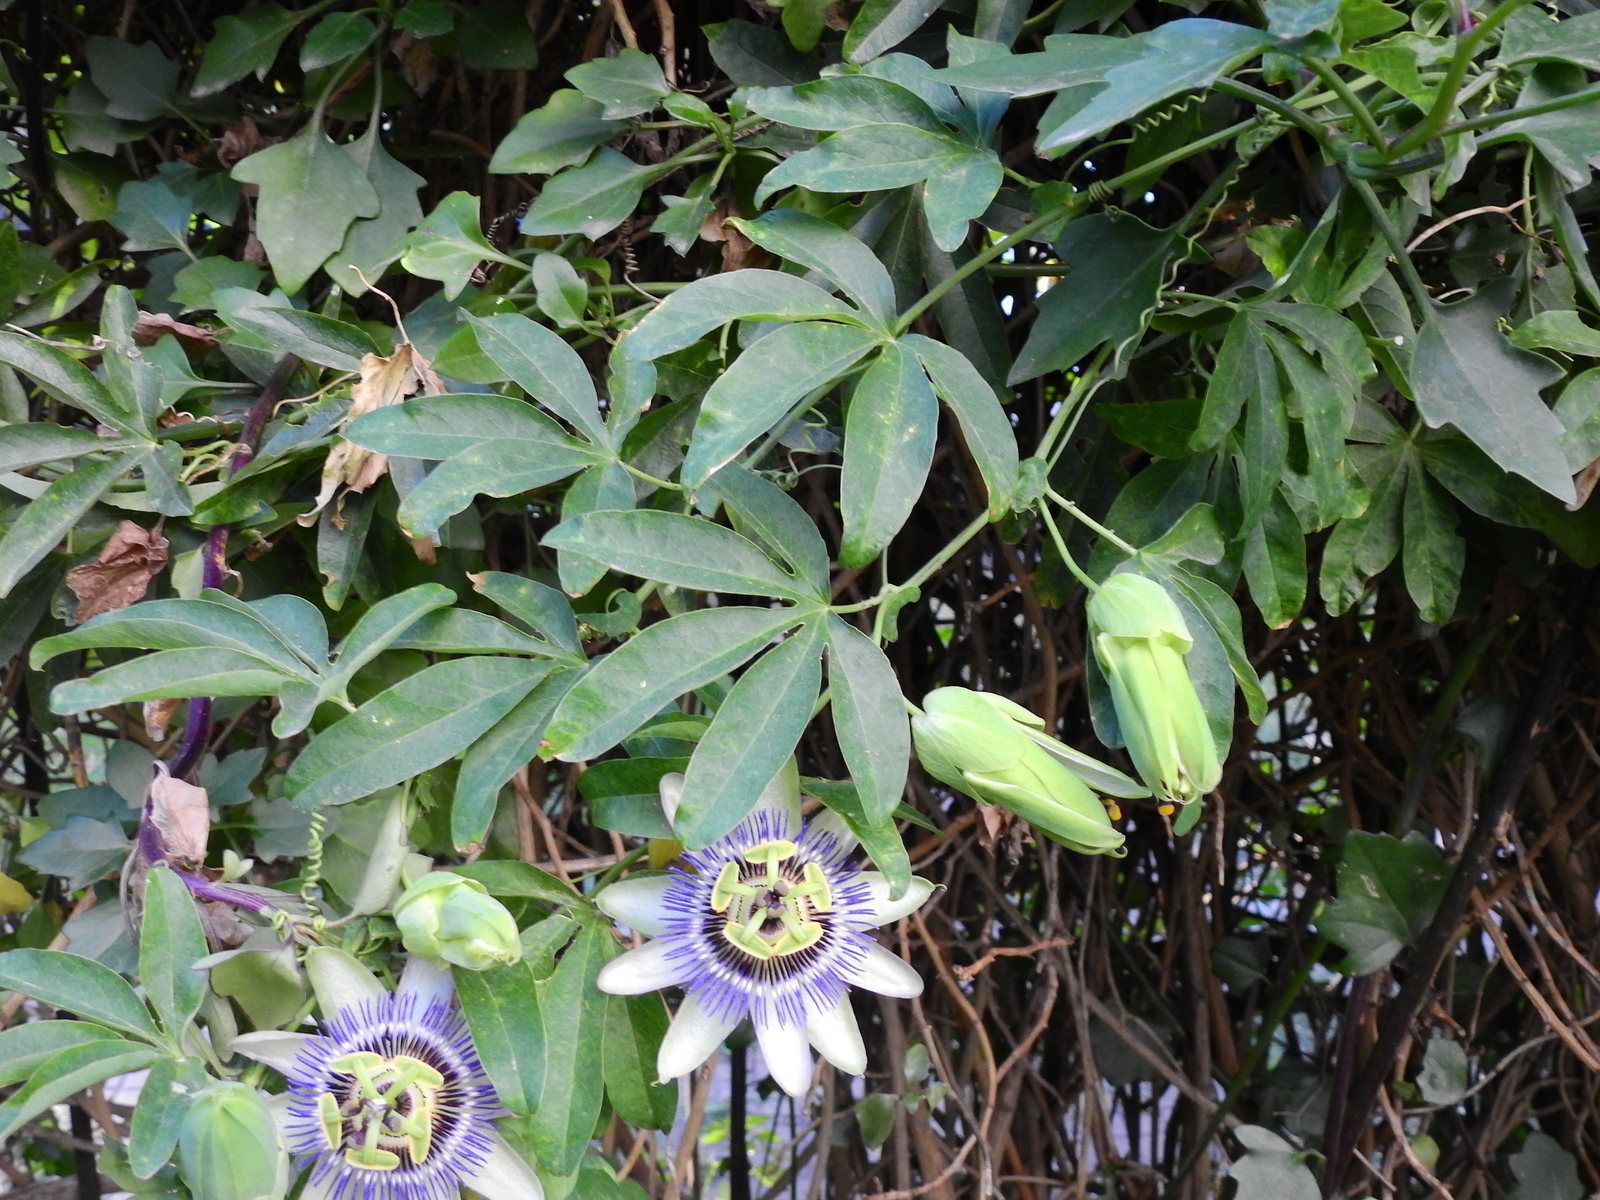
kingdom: Plantae
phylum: Tracheophyta
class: Magnoliopsida
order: Malpighiales
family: Passifloraceae
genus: Passiflora
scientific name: Passiflora caerulea
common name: Blue passionflower
